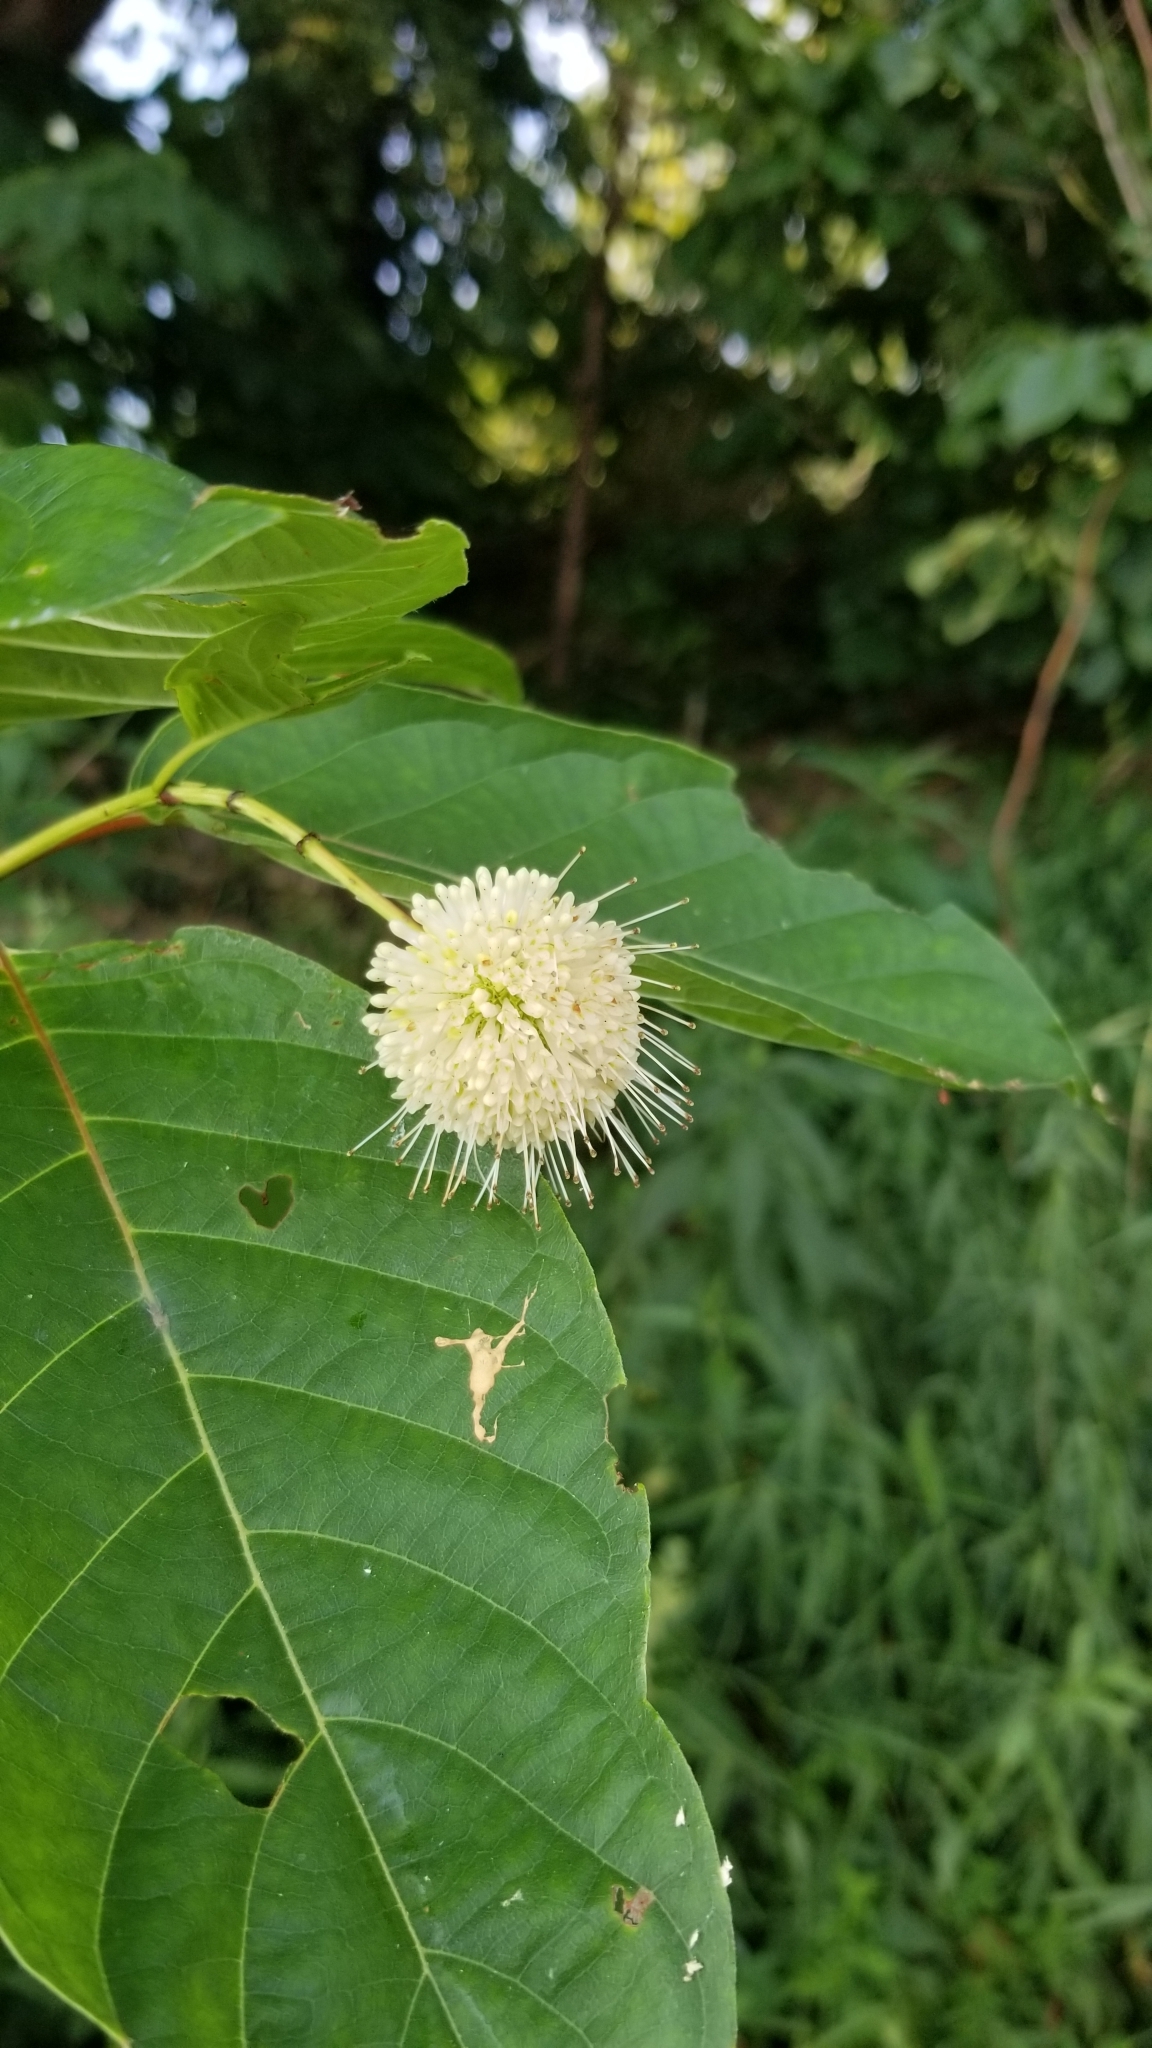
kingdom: Plantae
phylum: Tracheophyta
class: Magnoliopsida
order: Gentianales
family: Rubiaceae
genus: Cephalanthus
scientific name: Cephalanthus occidentalis
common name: Button-willow
